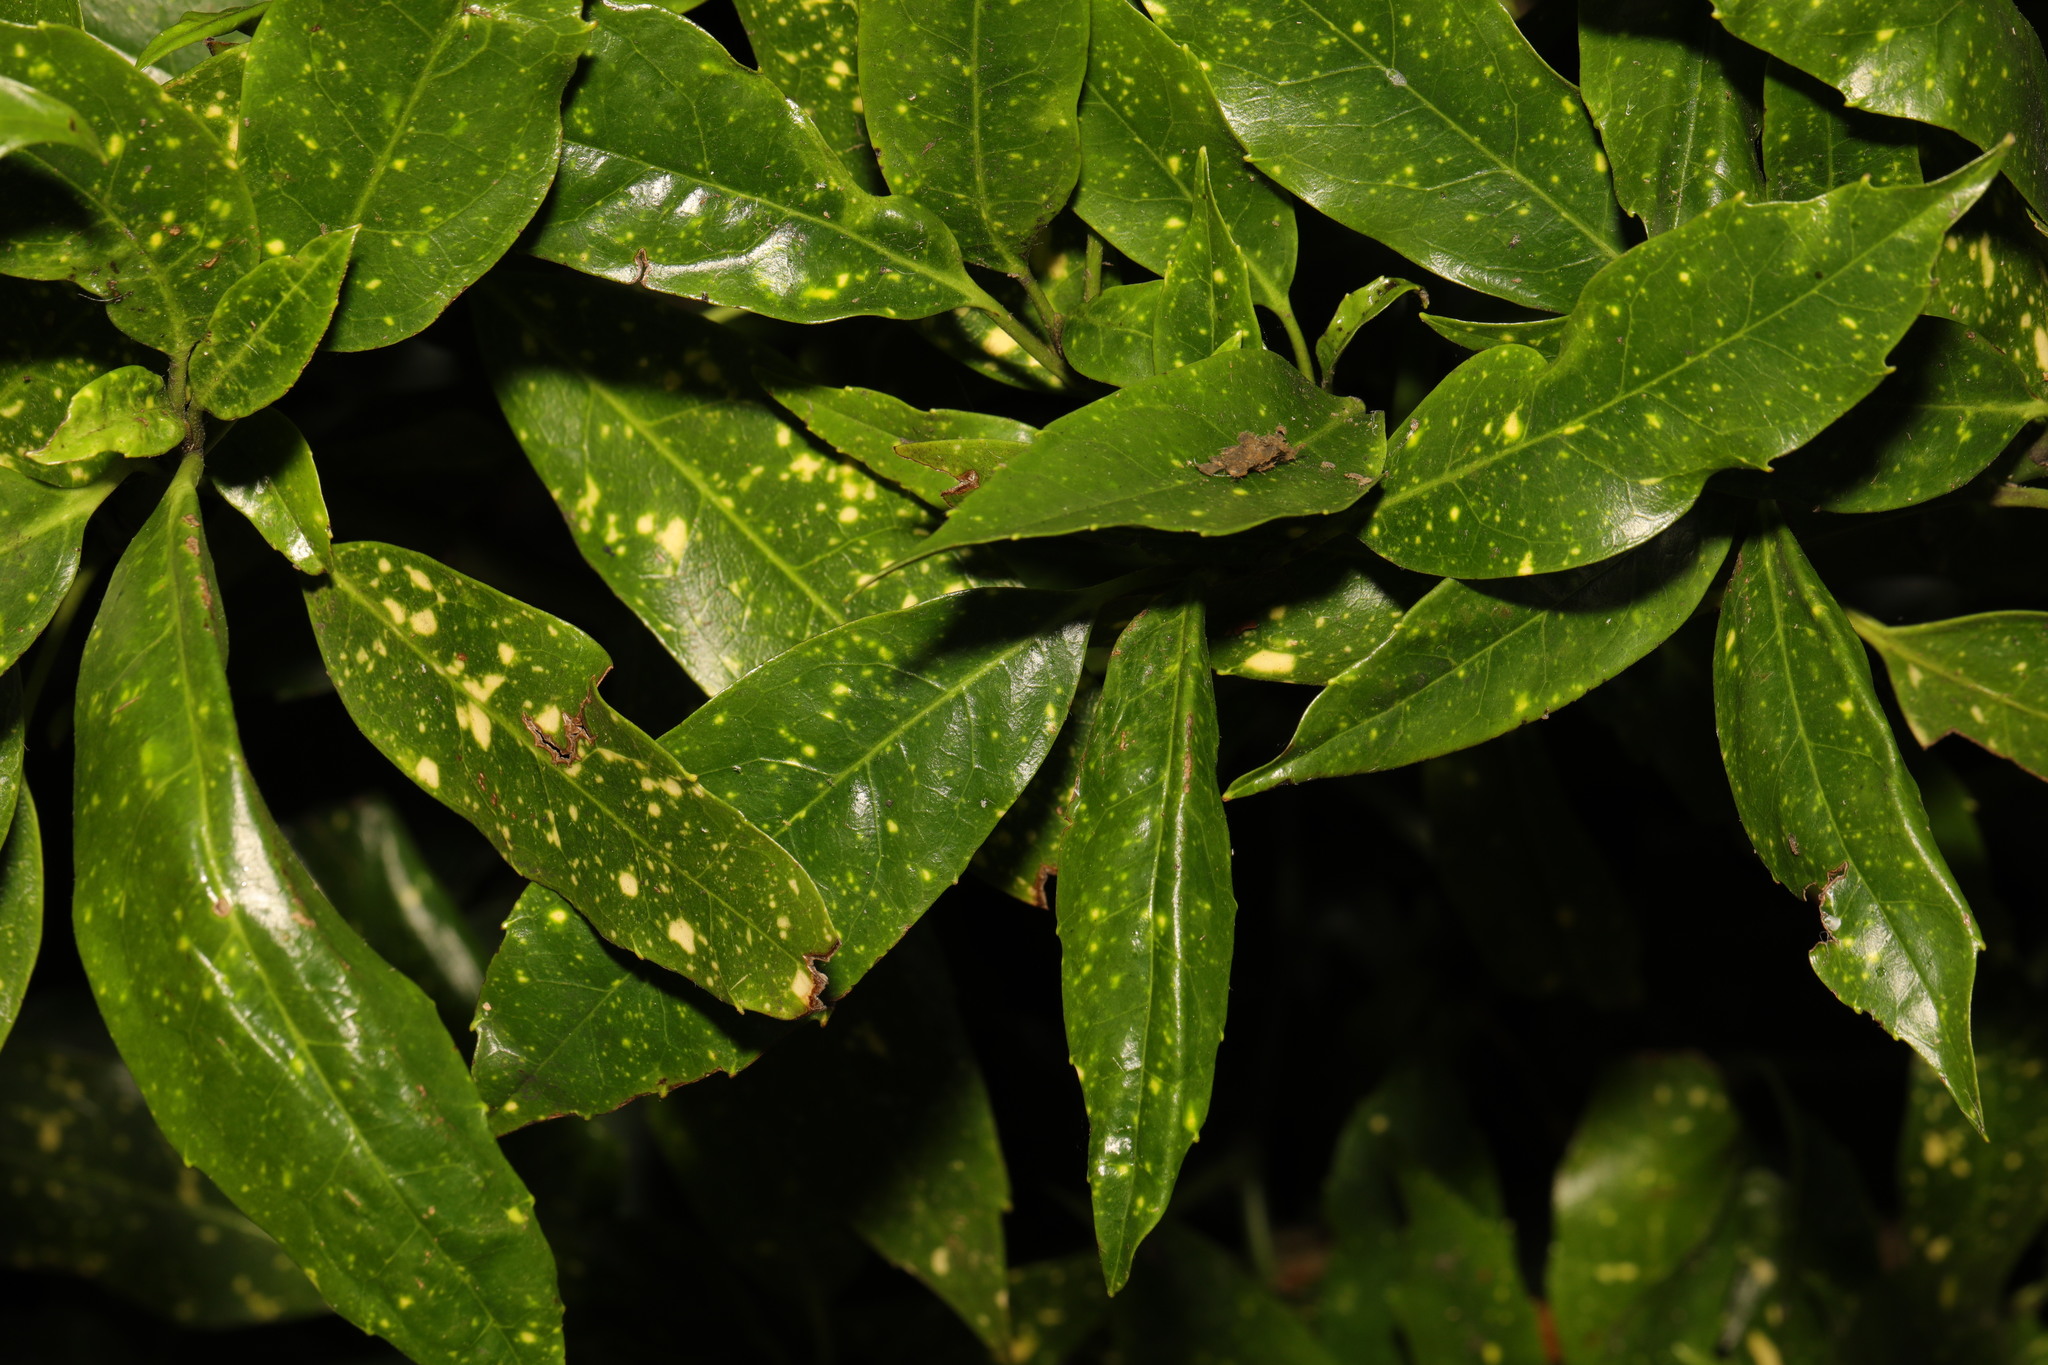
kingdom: Plantae
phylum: Tracheophyta
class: Magnoliopsida
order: Garryales
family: Garryaceae
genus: Aucuba
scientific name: Aucuba japonica
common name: Spotted-laurel
